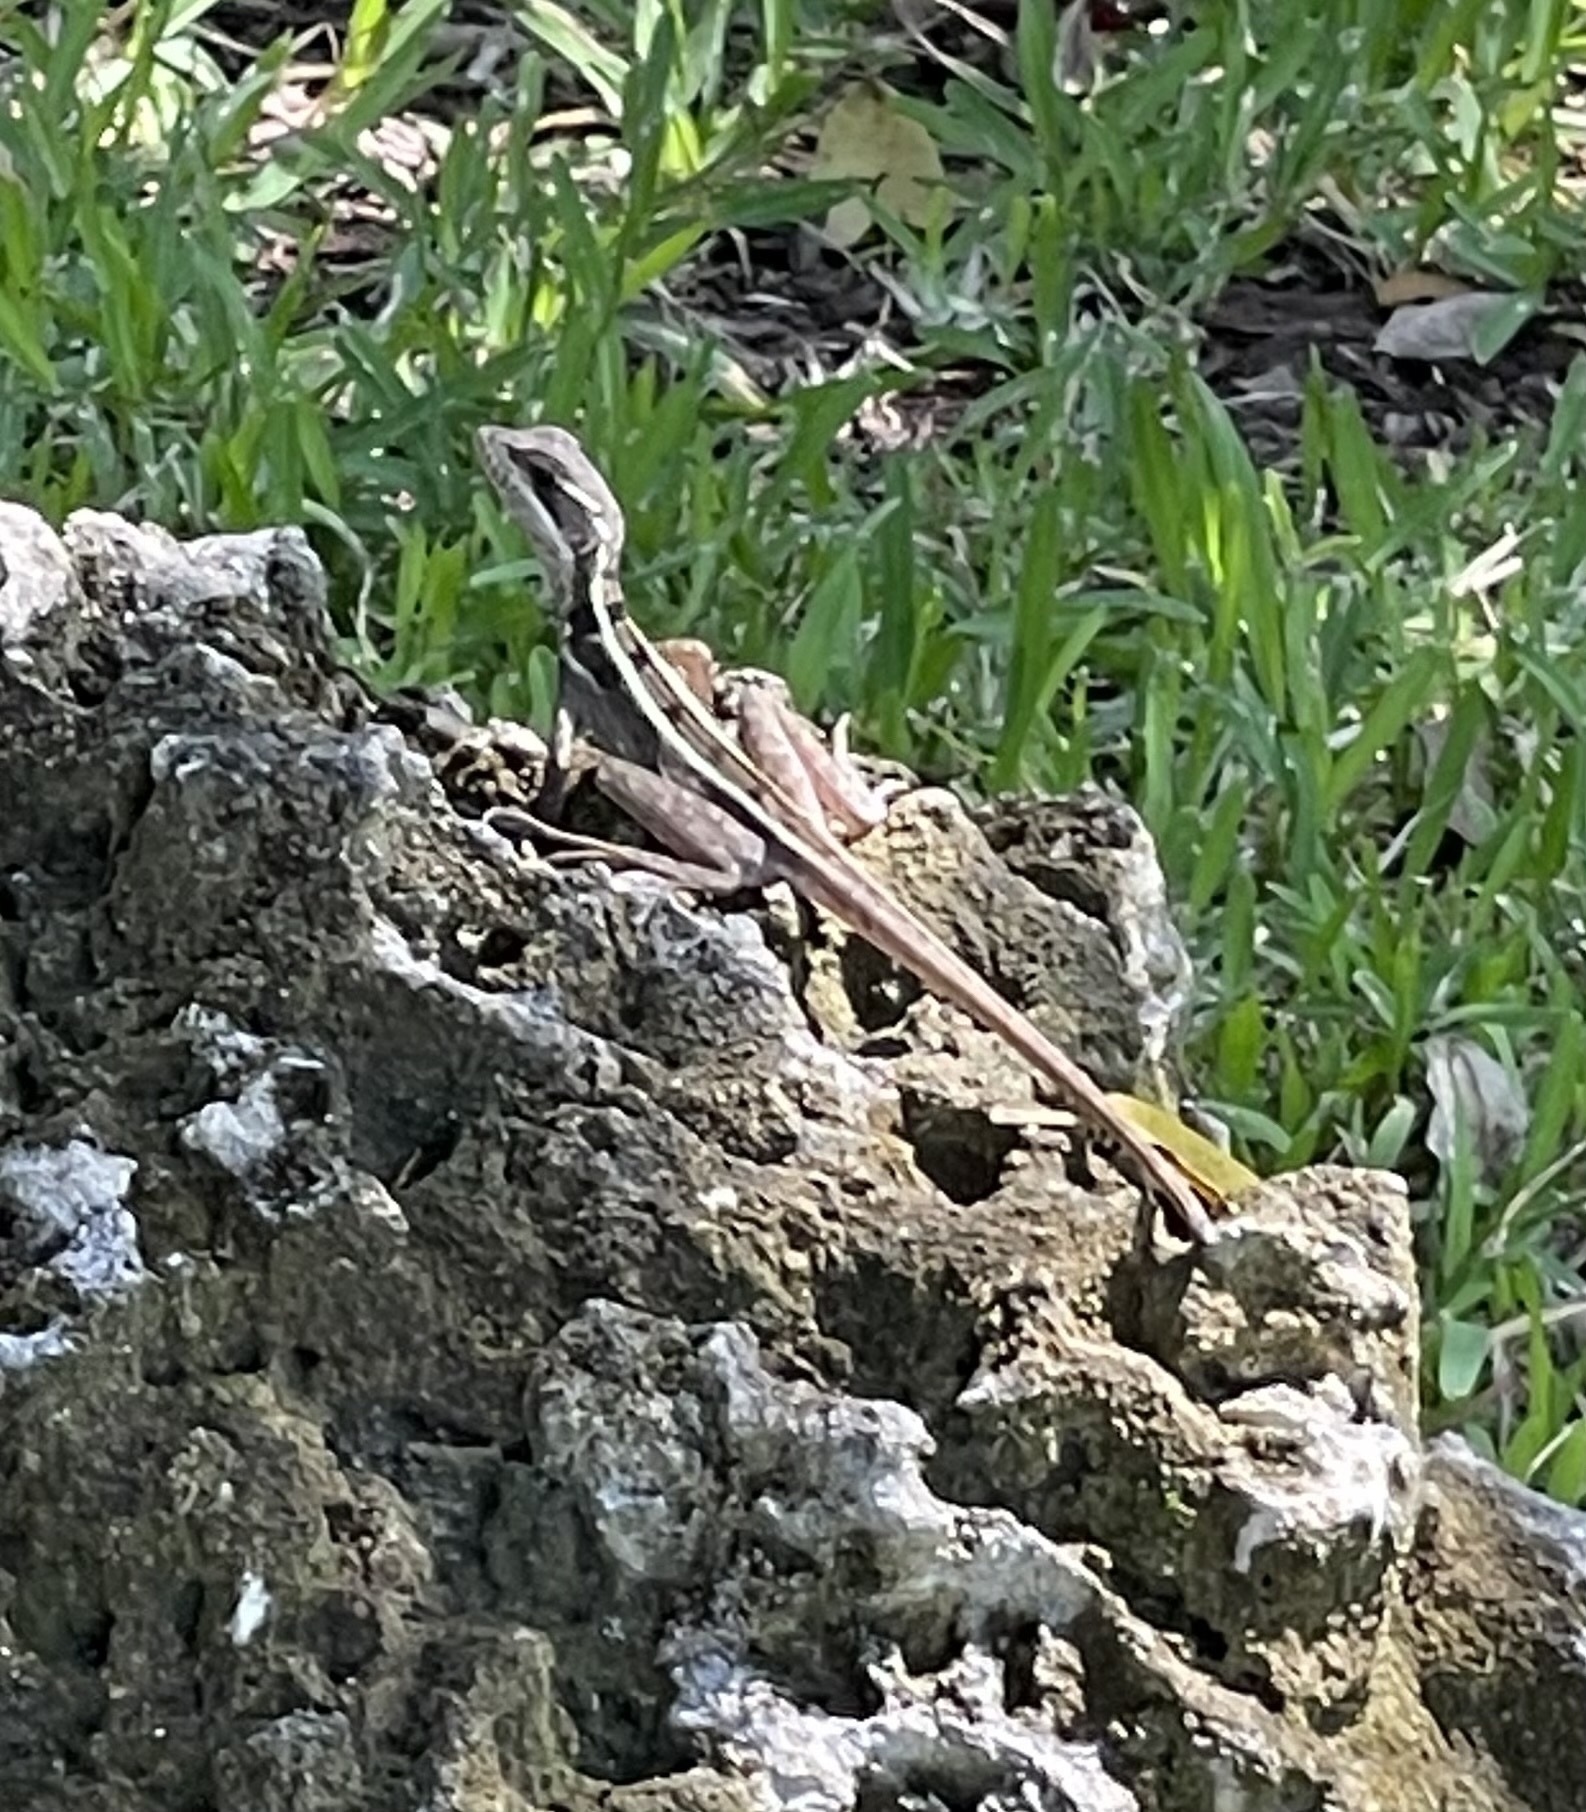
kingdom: Animalia
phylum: Chordata
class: Squamata
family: Corytophanidae
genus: Basiliscus
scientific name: Basiliscus vittatus
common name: Brown basilisk
